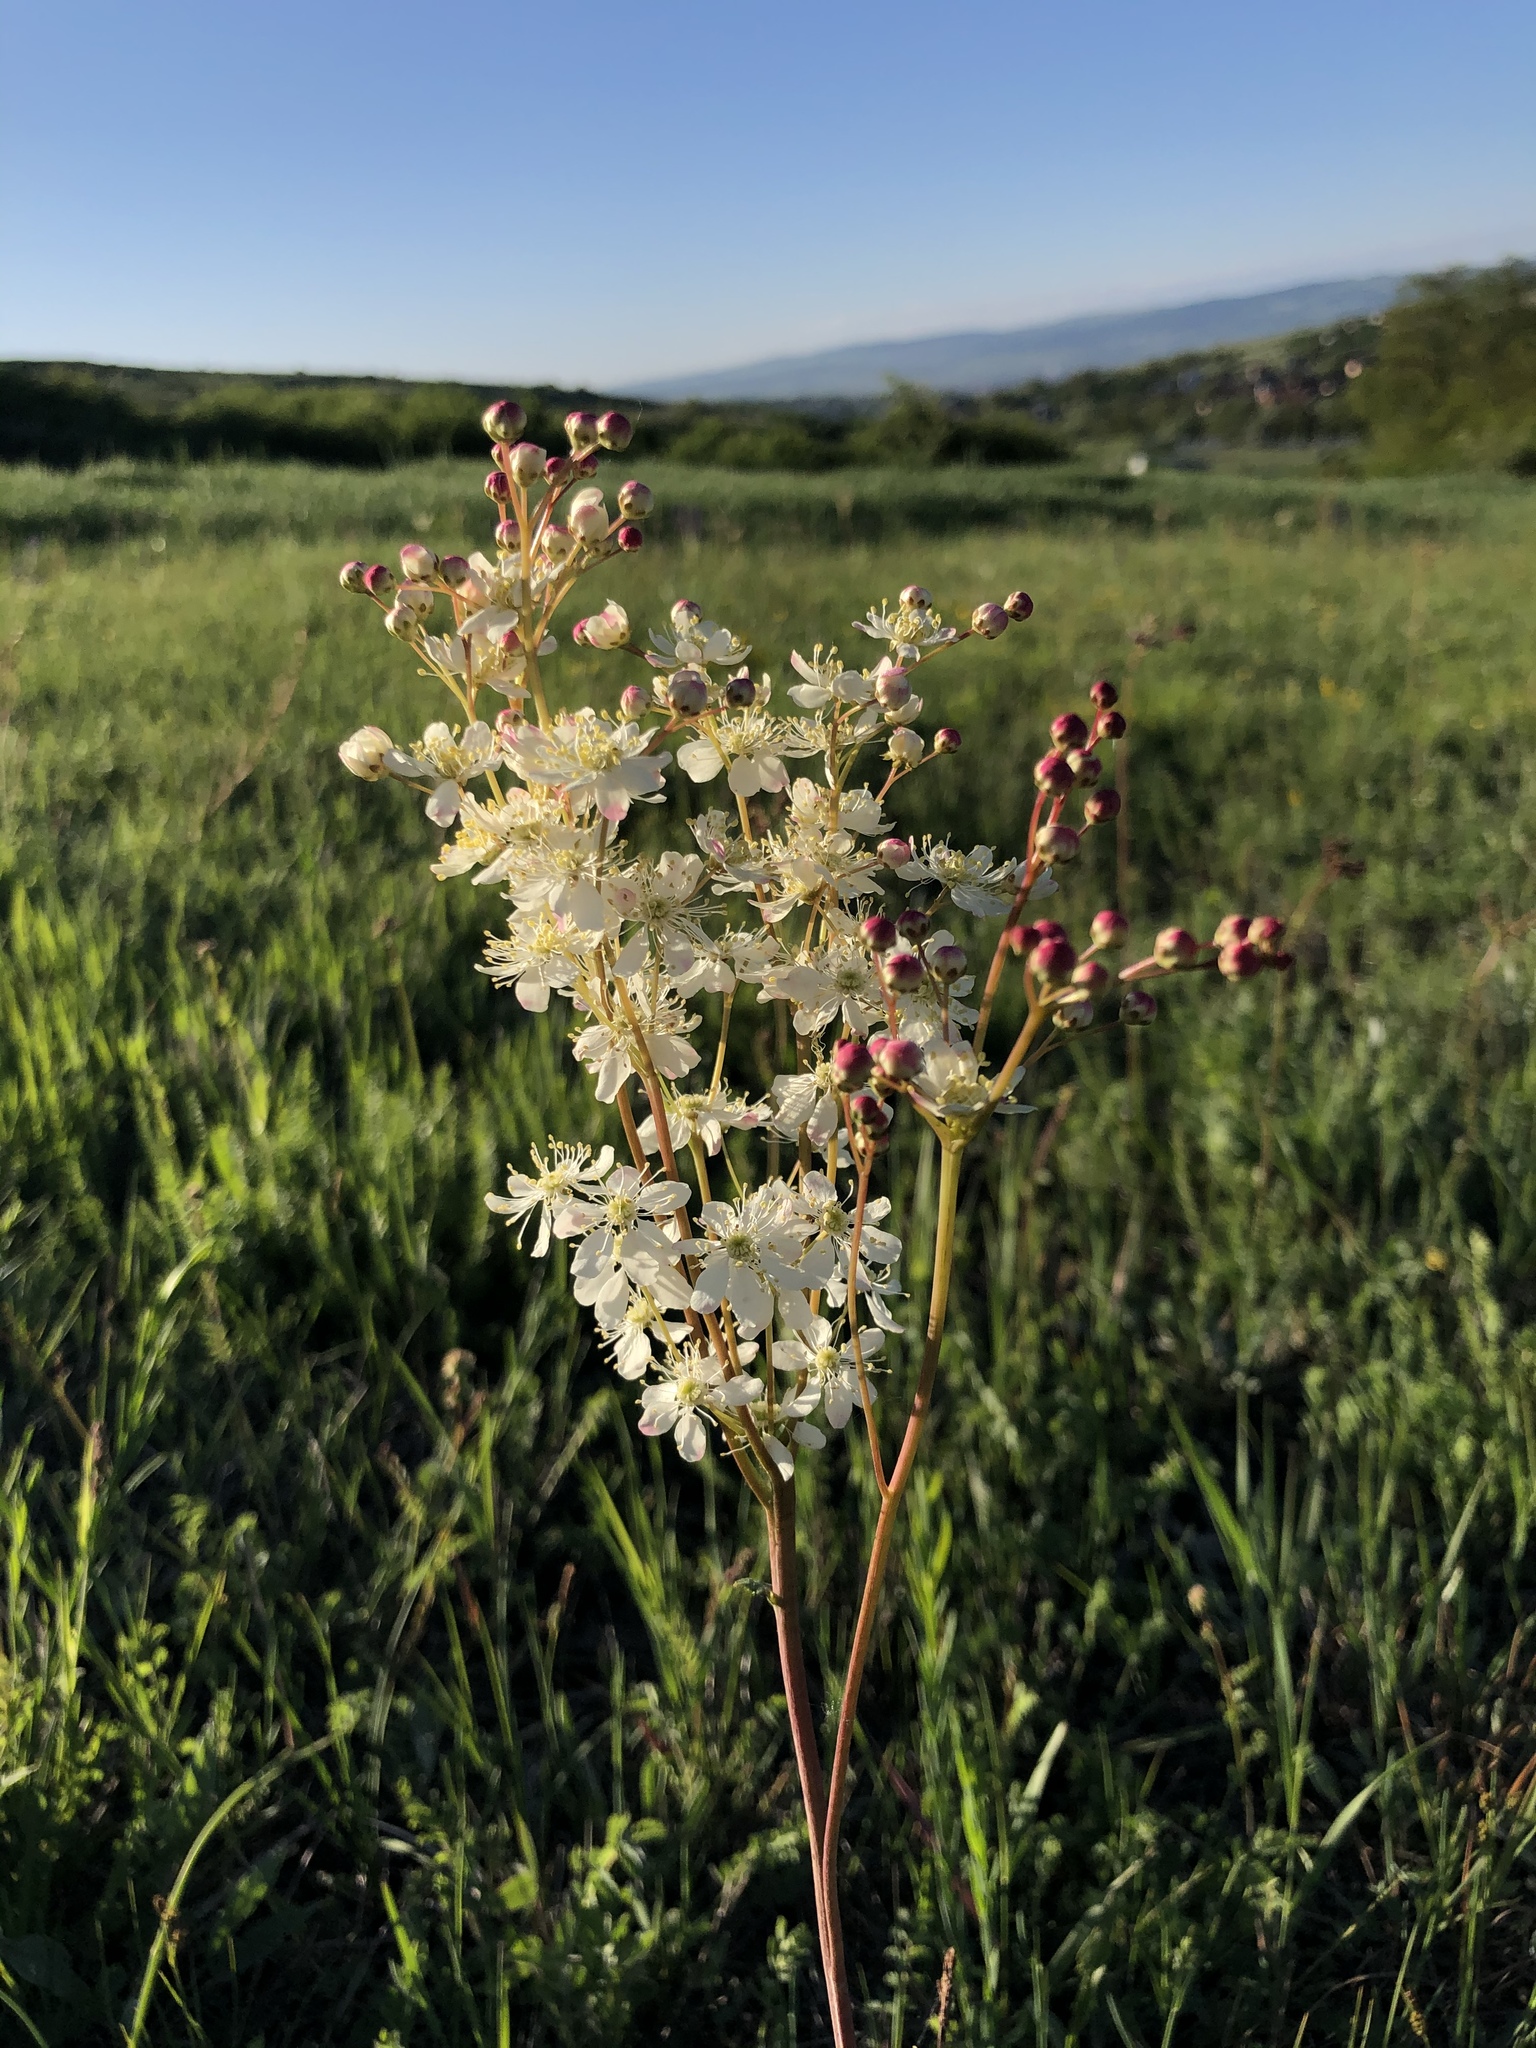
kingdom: Plantae
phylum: Tracheophyta
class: Magnoliopsida
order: Rosales
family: Rosaceae
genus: Filipendula
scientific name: Filipendula vulgaris
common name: Dropwort
